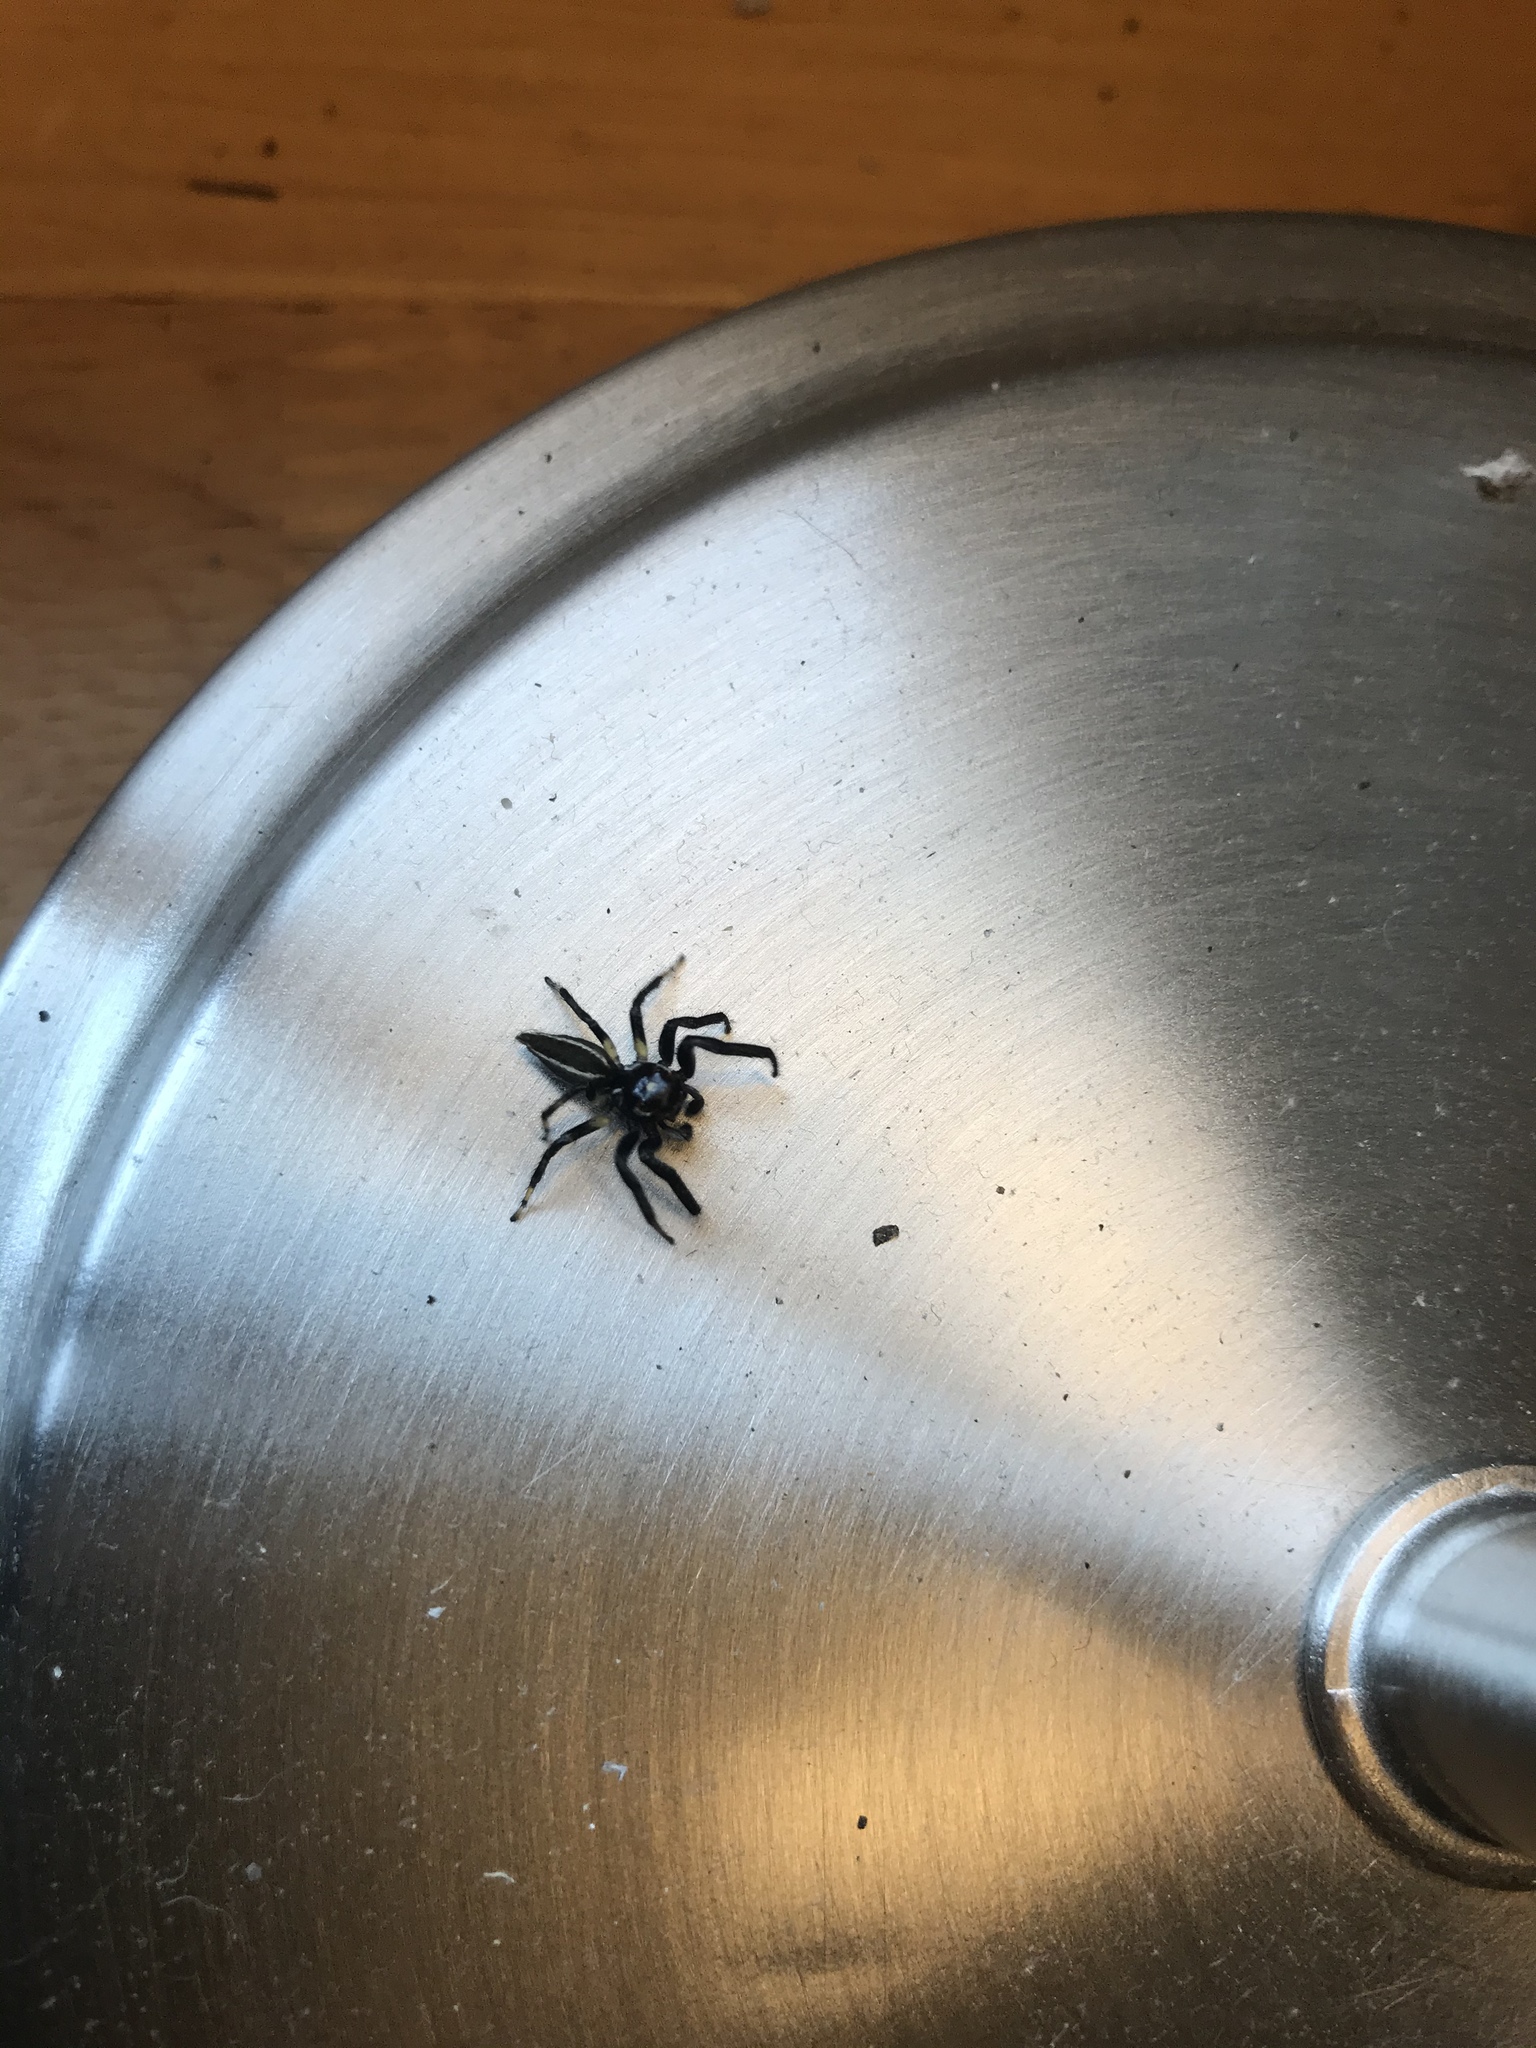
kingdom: Animalia
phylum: Arthropoda
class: Arachnida
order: Araneae
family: Salticidae
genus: Colonus
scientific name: Colonus puerperus
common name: Jumping spiders
